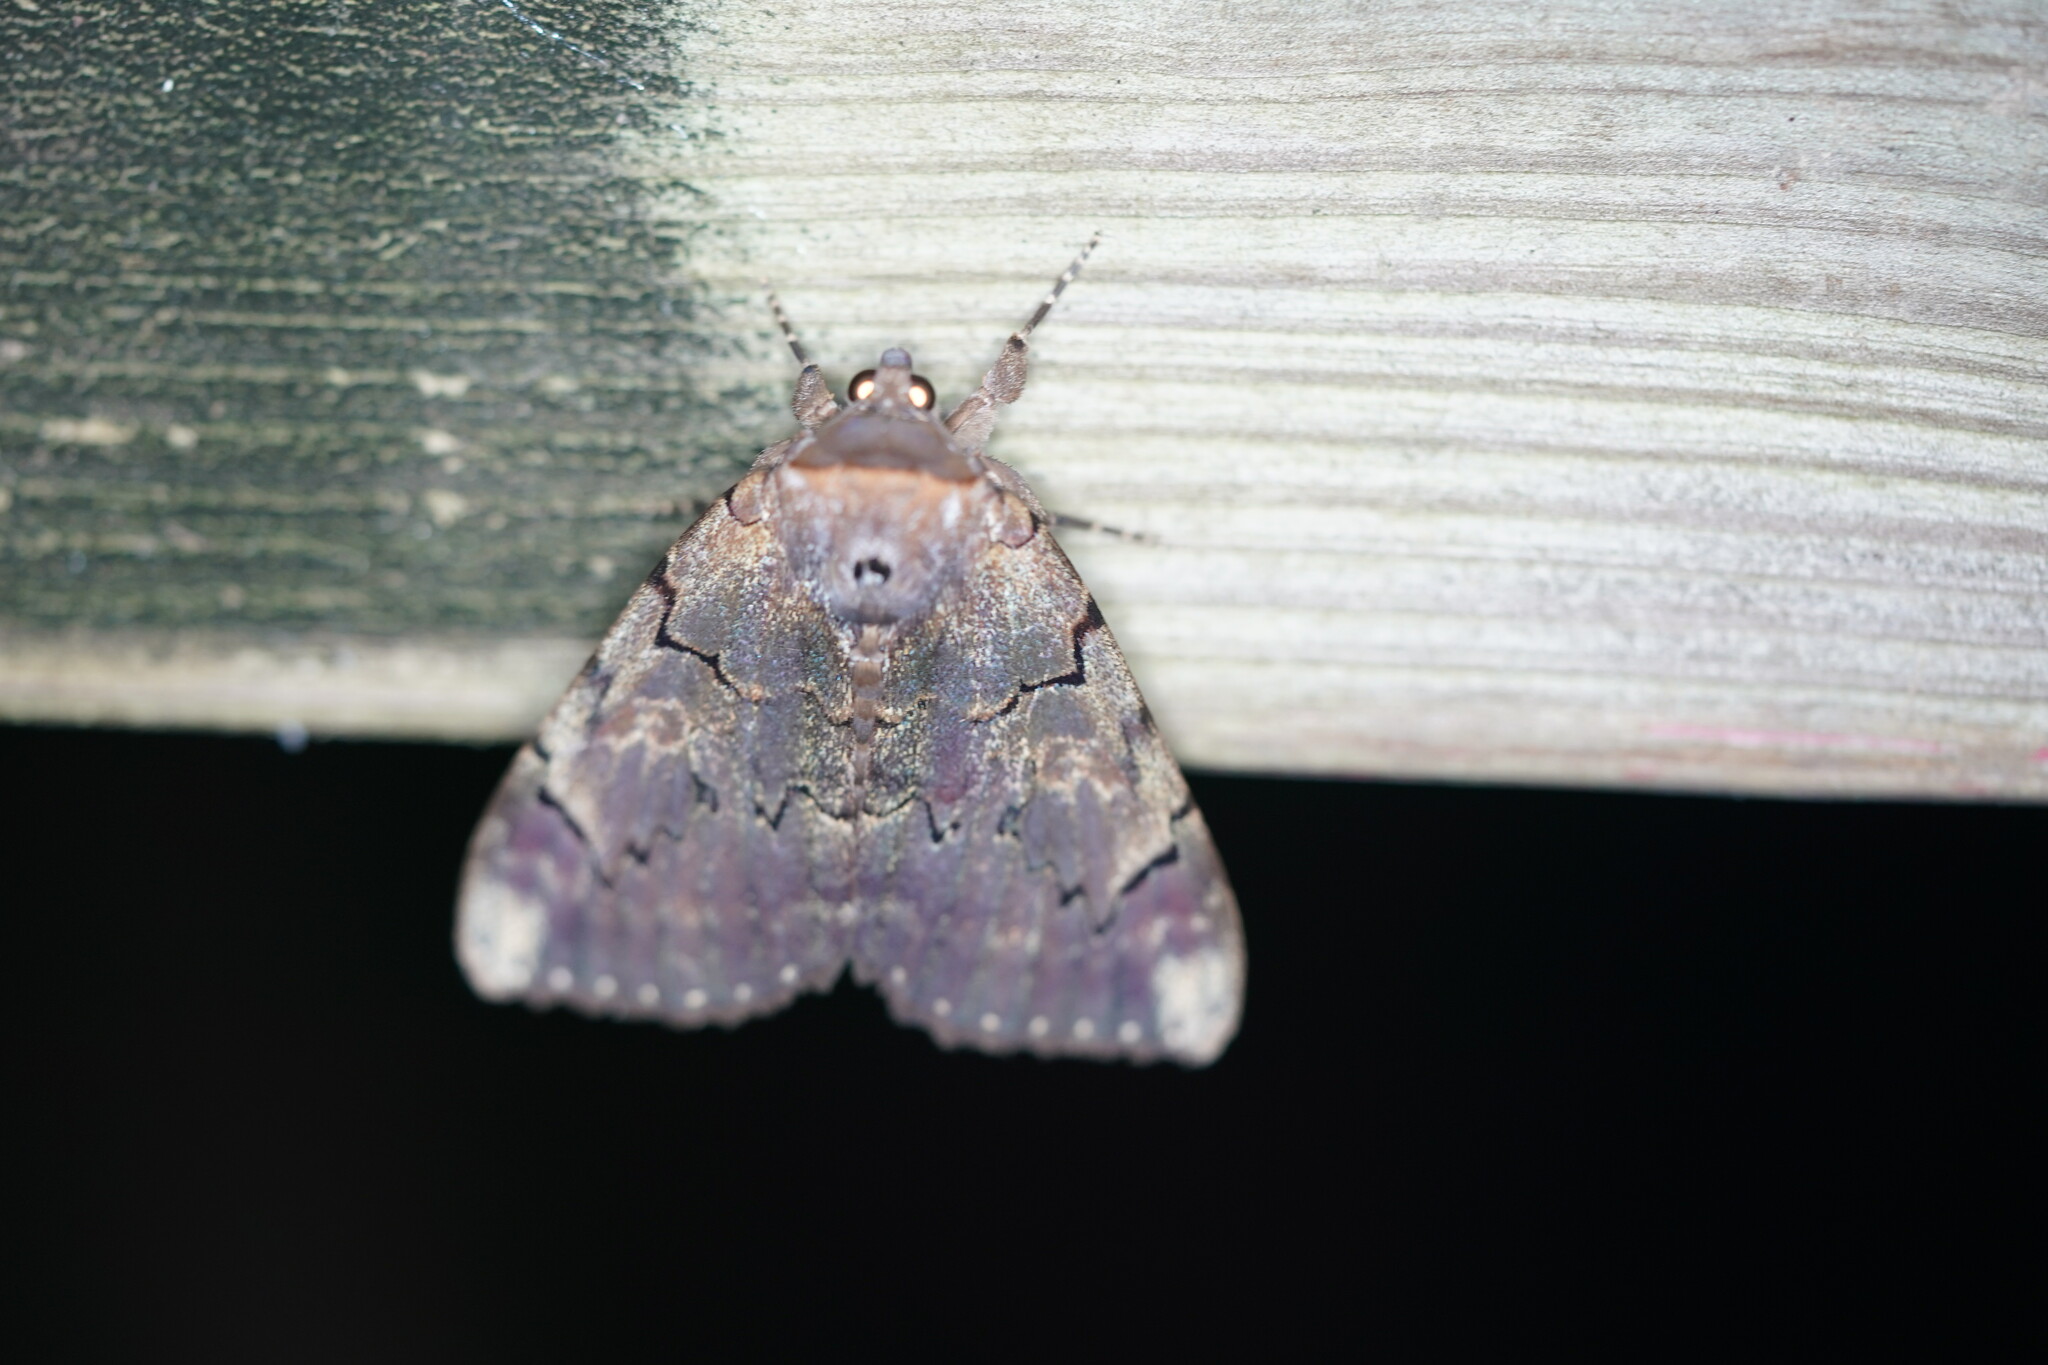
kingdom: Animalia
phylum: Arthropoda
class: Insecta
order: Lepidoptera
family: Erebidae
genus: Catocala
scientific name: Catocala carissima
